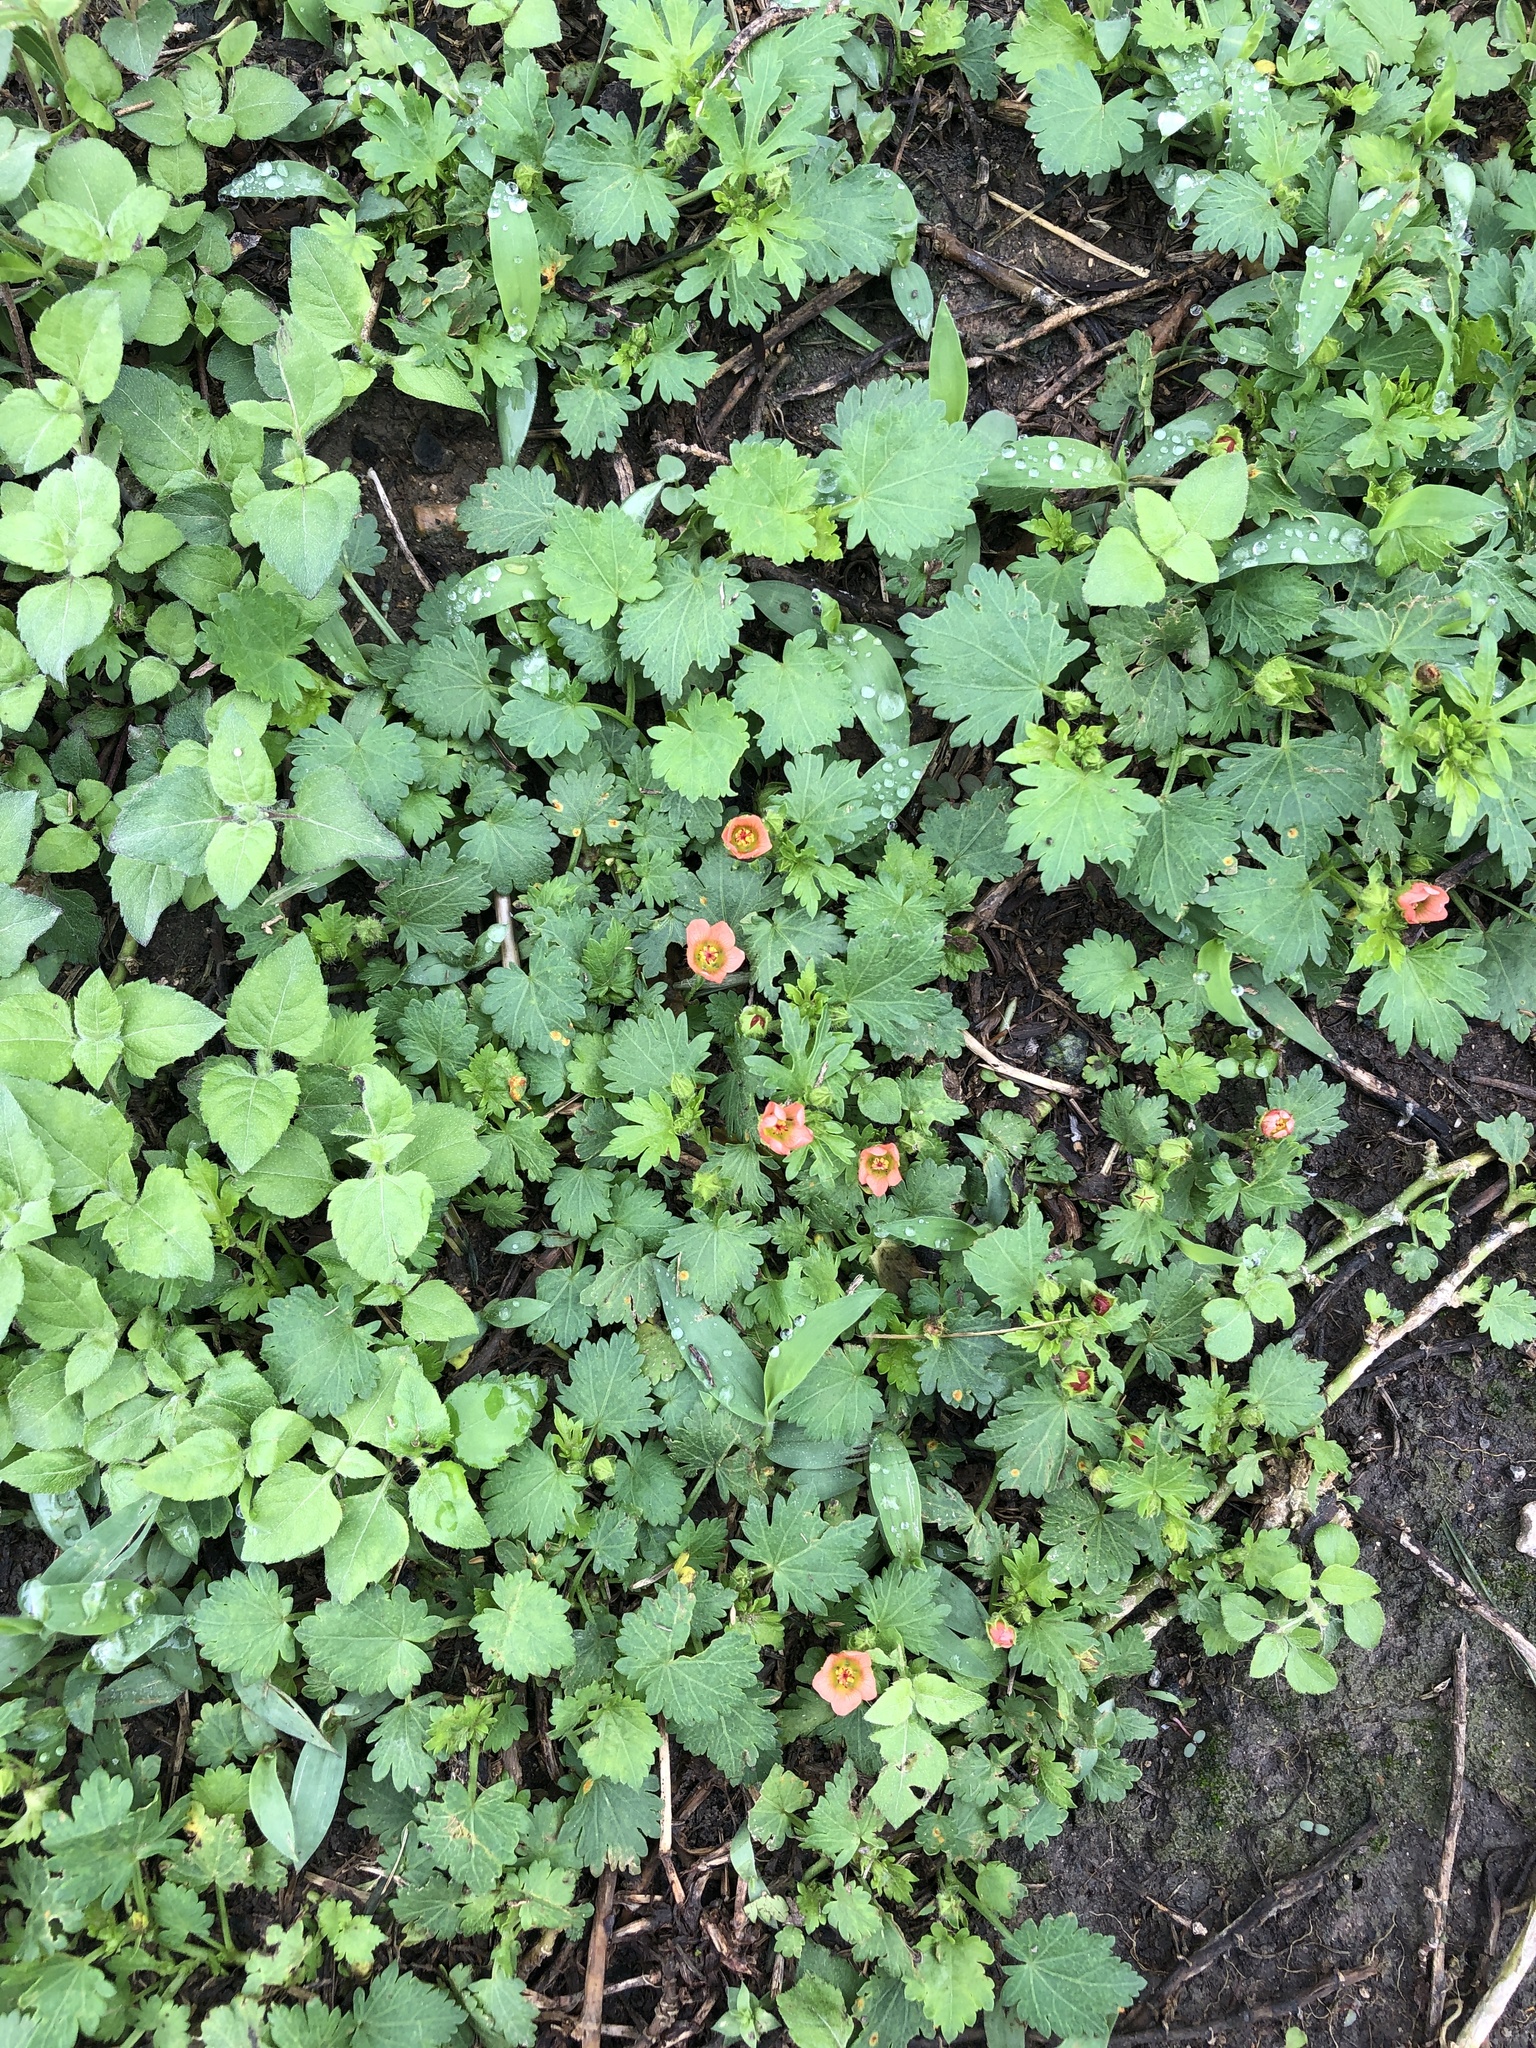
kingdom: Plantae
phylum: Tracheophyta
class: Magnoliopsida
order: Malvales
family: Malvaceae
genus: Modiola
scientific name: Modiola caroliniana
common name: Carolina bristlemallow
